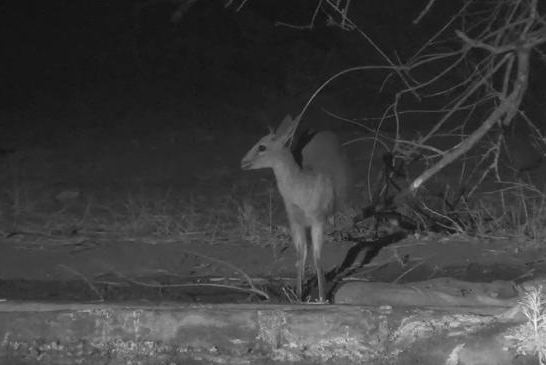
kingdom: Animalia
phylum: Chordata
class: Mammalia
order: Artiodactyla
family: Bovidae
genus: Sylvicapra
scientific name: Sylvicapra grimmia
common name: Bush duiker
